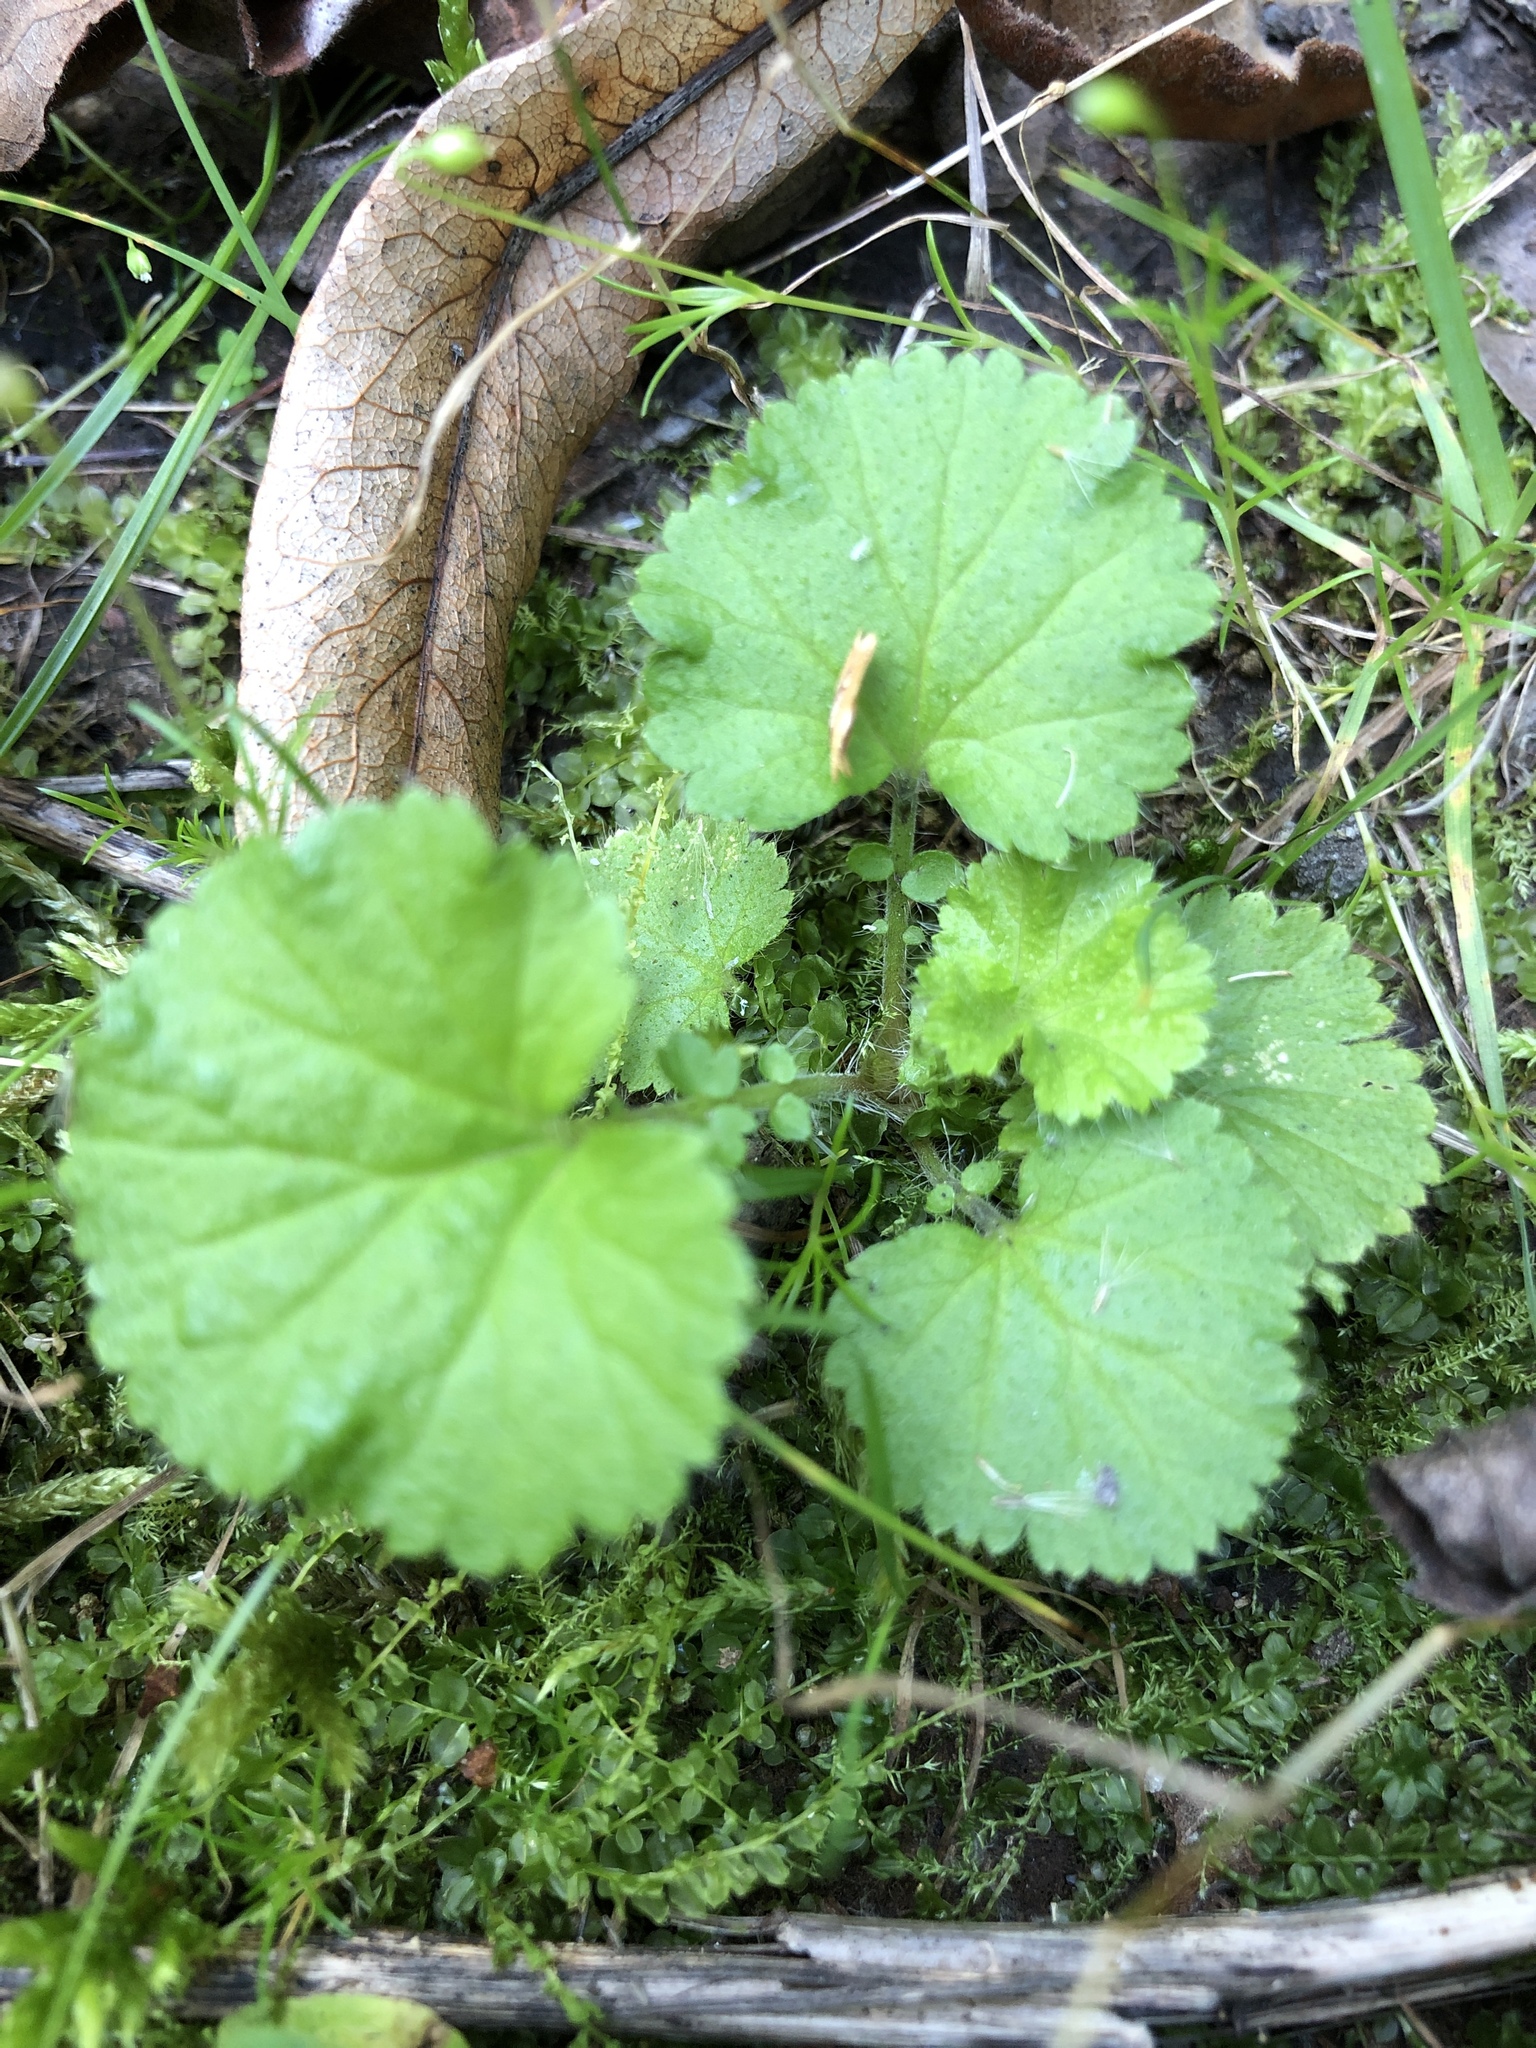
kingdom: Plantae
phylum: Tracheophyta
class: Magnoliopsida
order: Rosales
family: Rosaceae
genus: Geum
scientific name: Geum macrophyllum
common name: Large-leaved avens
